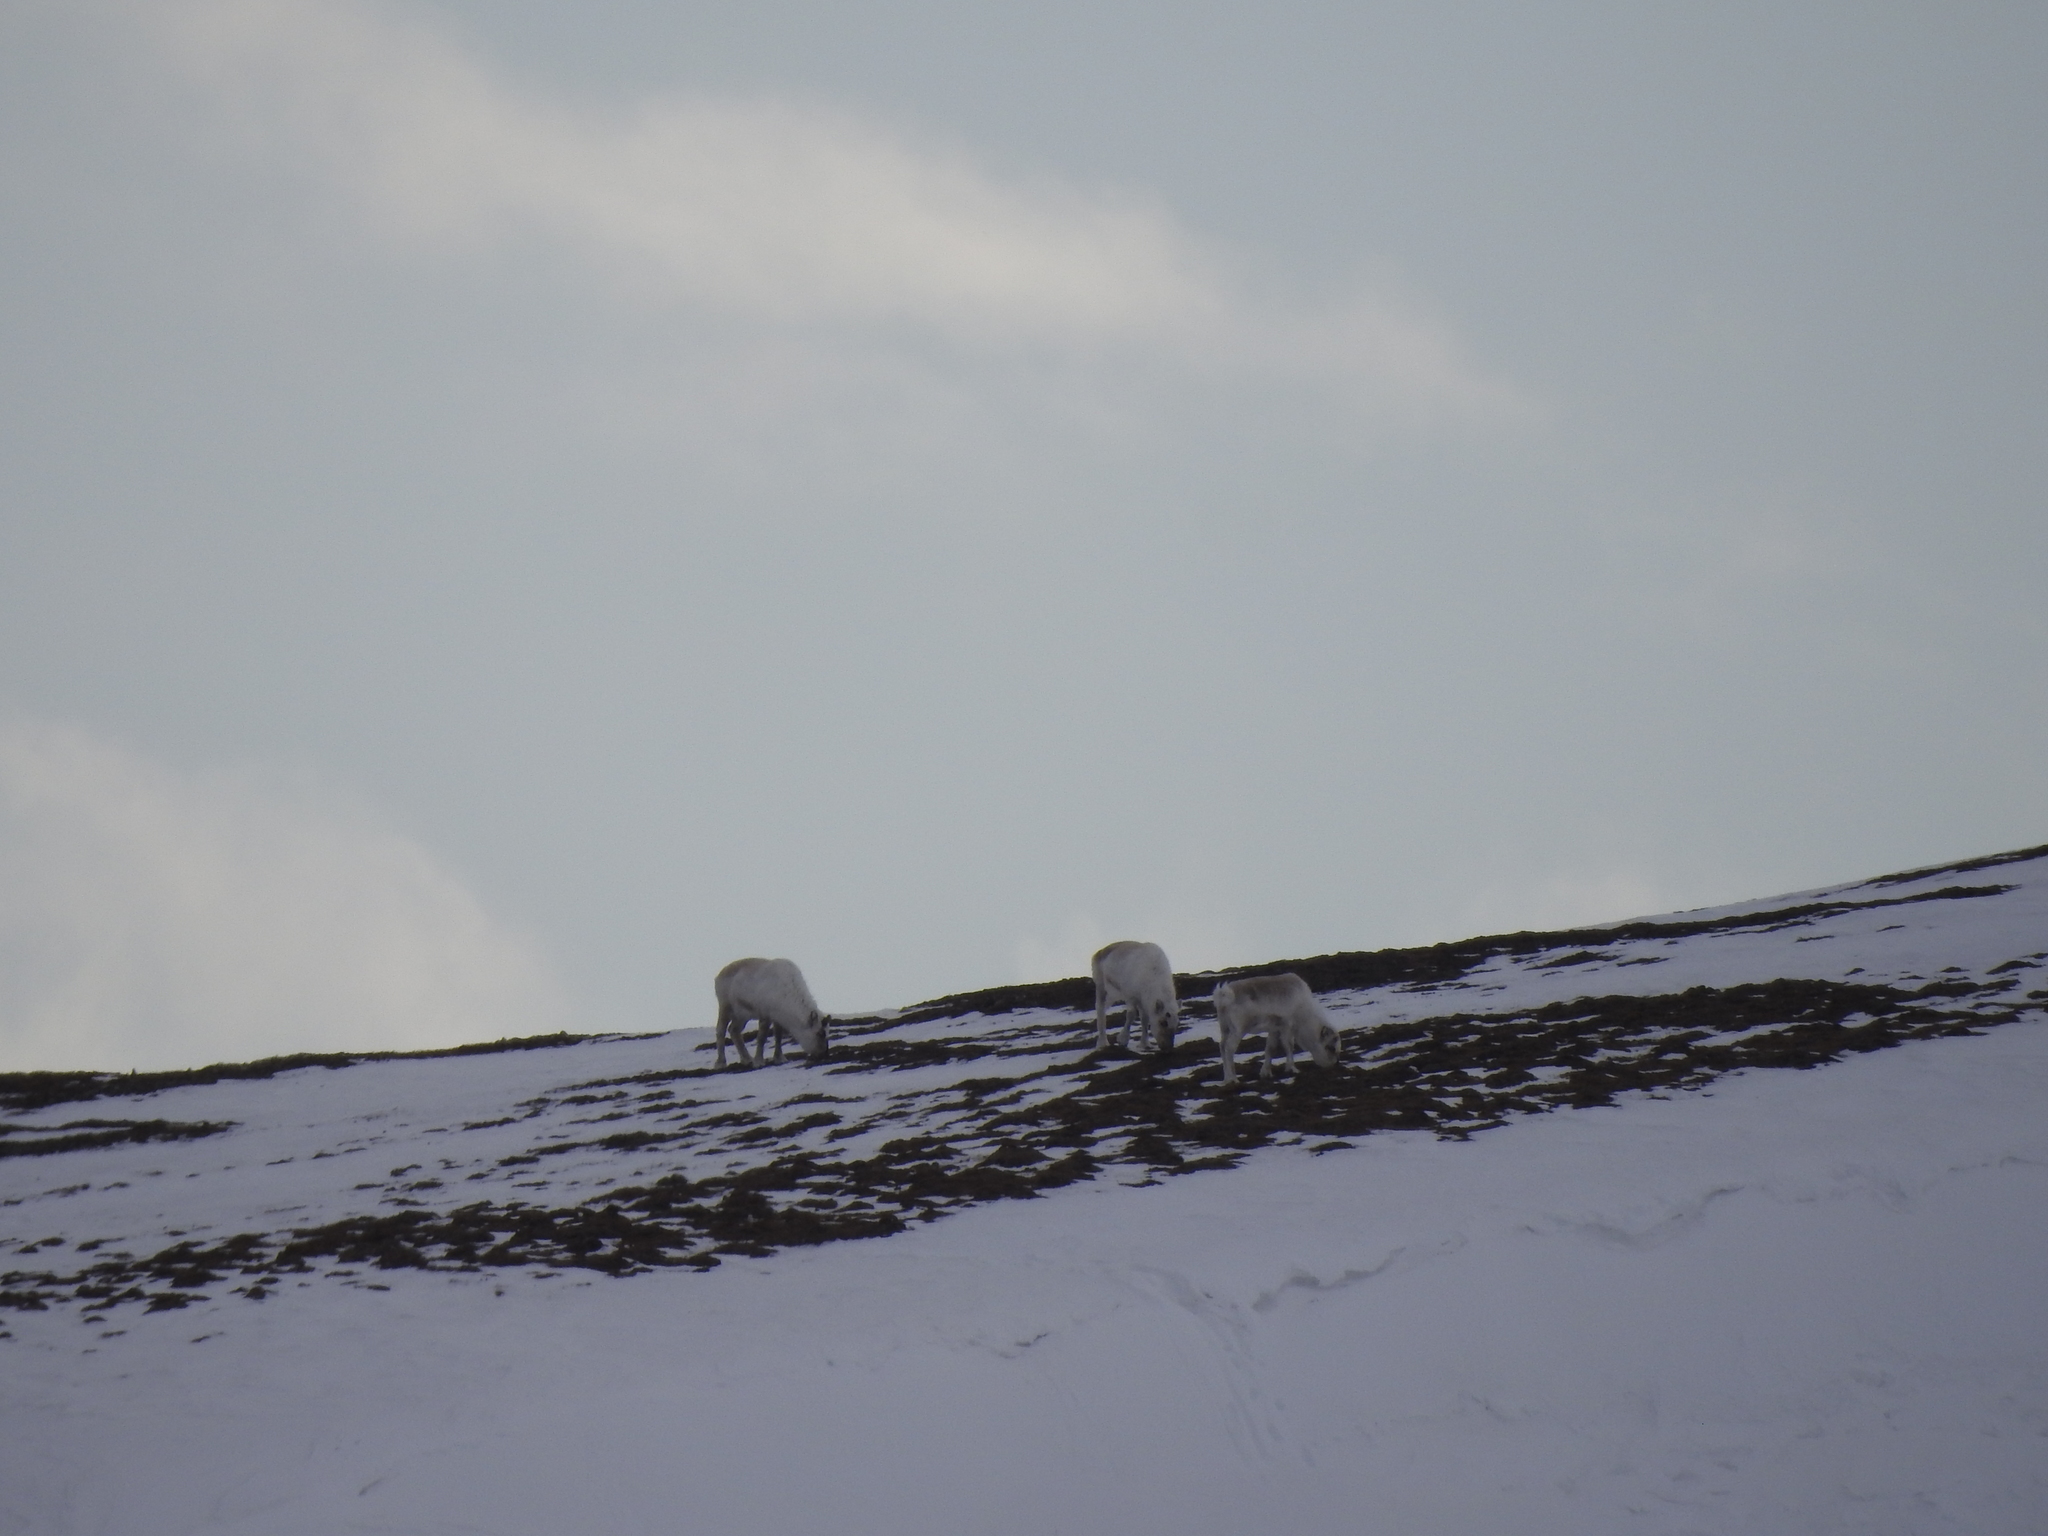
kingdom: Animalia
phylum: Chordata
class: Mammalia
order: Artiodactyla
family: Cervidae
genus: Rangifer
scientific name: Rangifer tarandus
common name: Reindeer
